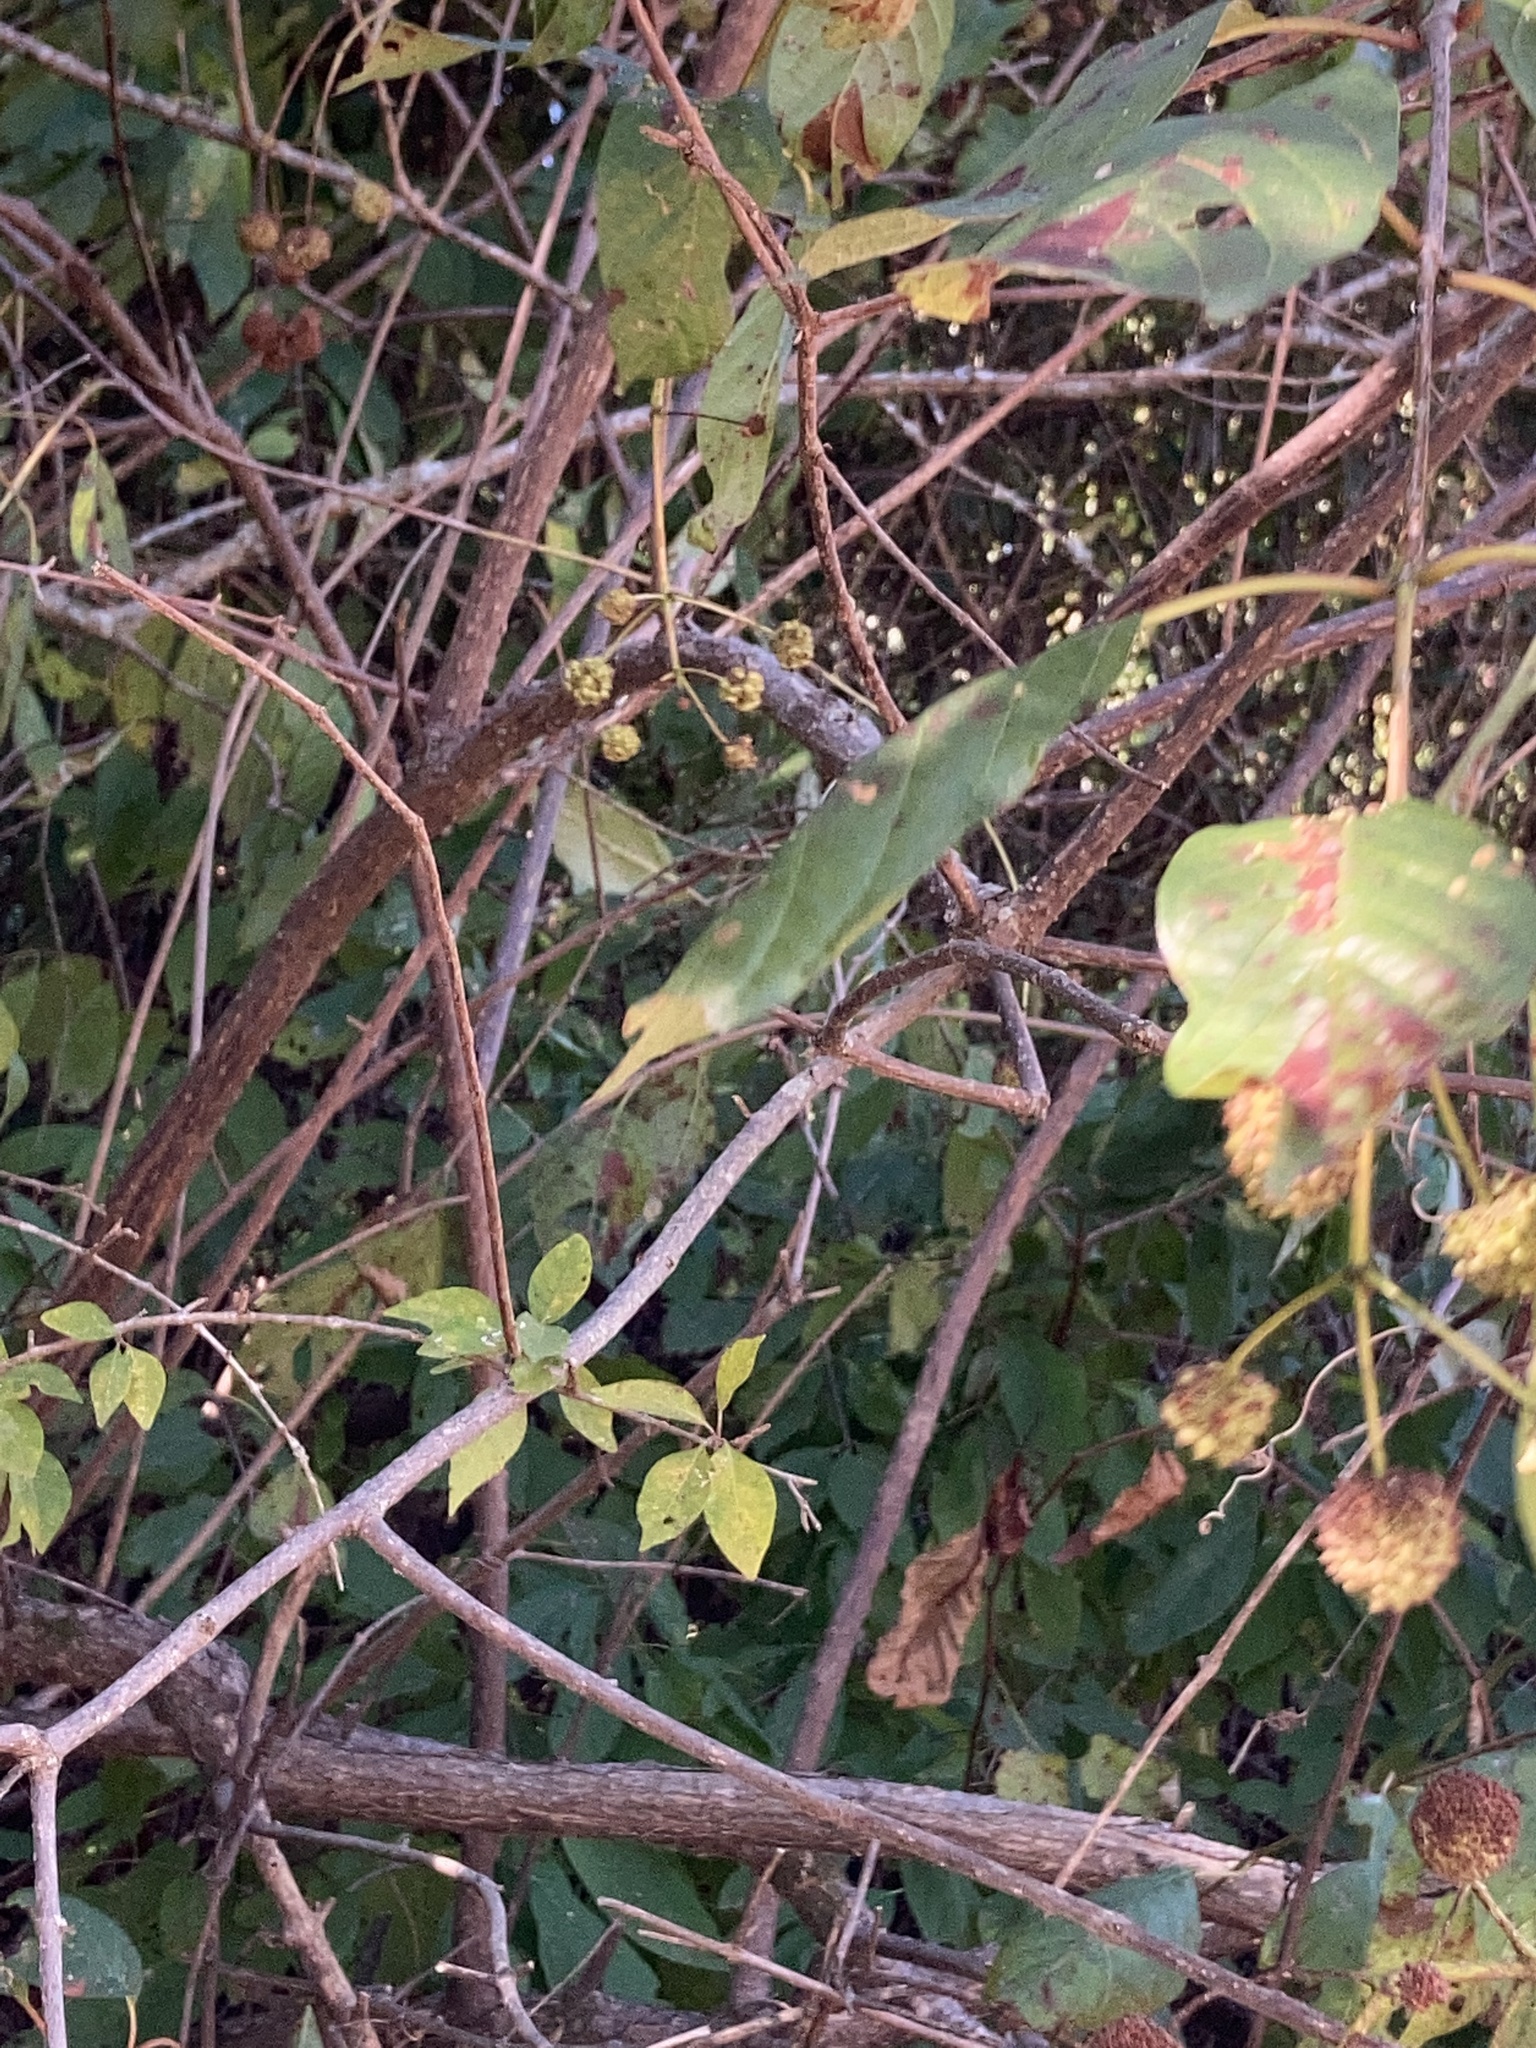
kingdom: Plantae
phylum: Tracheophyta
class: Magnoliopsida
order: Gentianales
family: Rubiaceae
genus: Cephalanthus
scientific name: Cephalanthus occidentalis
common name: Button-willow
